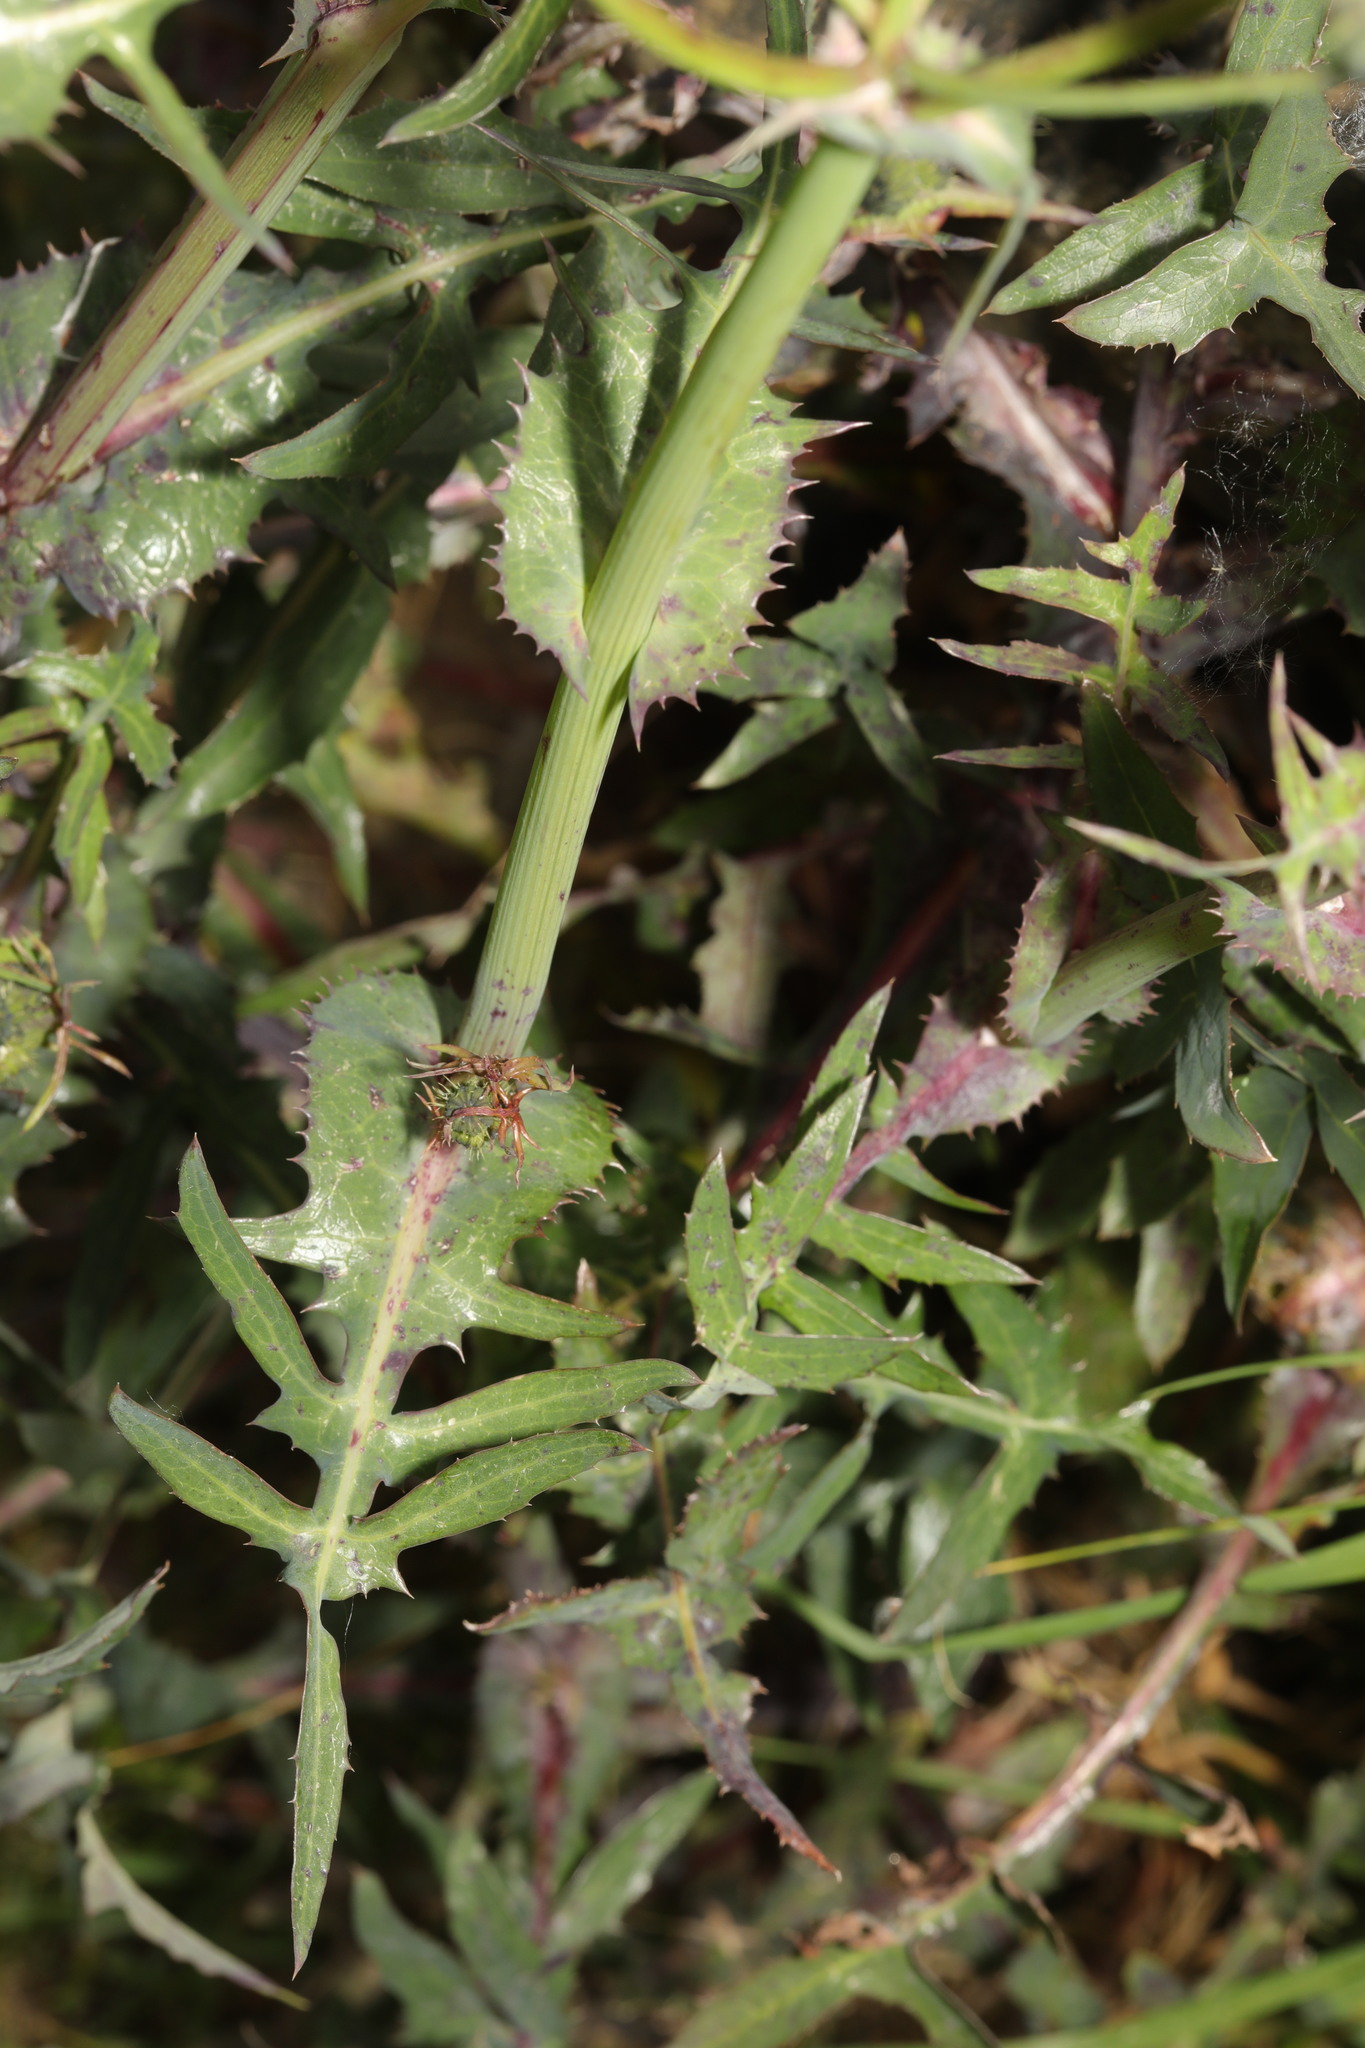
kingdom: Plantae
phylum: Tracheophyta
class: Magnoliopsida
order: Asterales
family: Asteraceae
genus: Sonchus
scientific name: Sonchus oleraceus
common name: Common sowthistle
